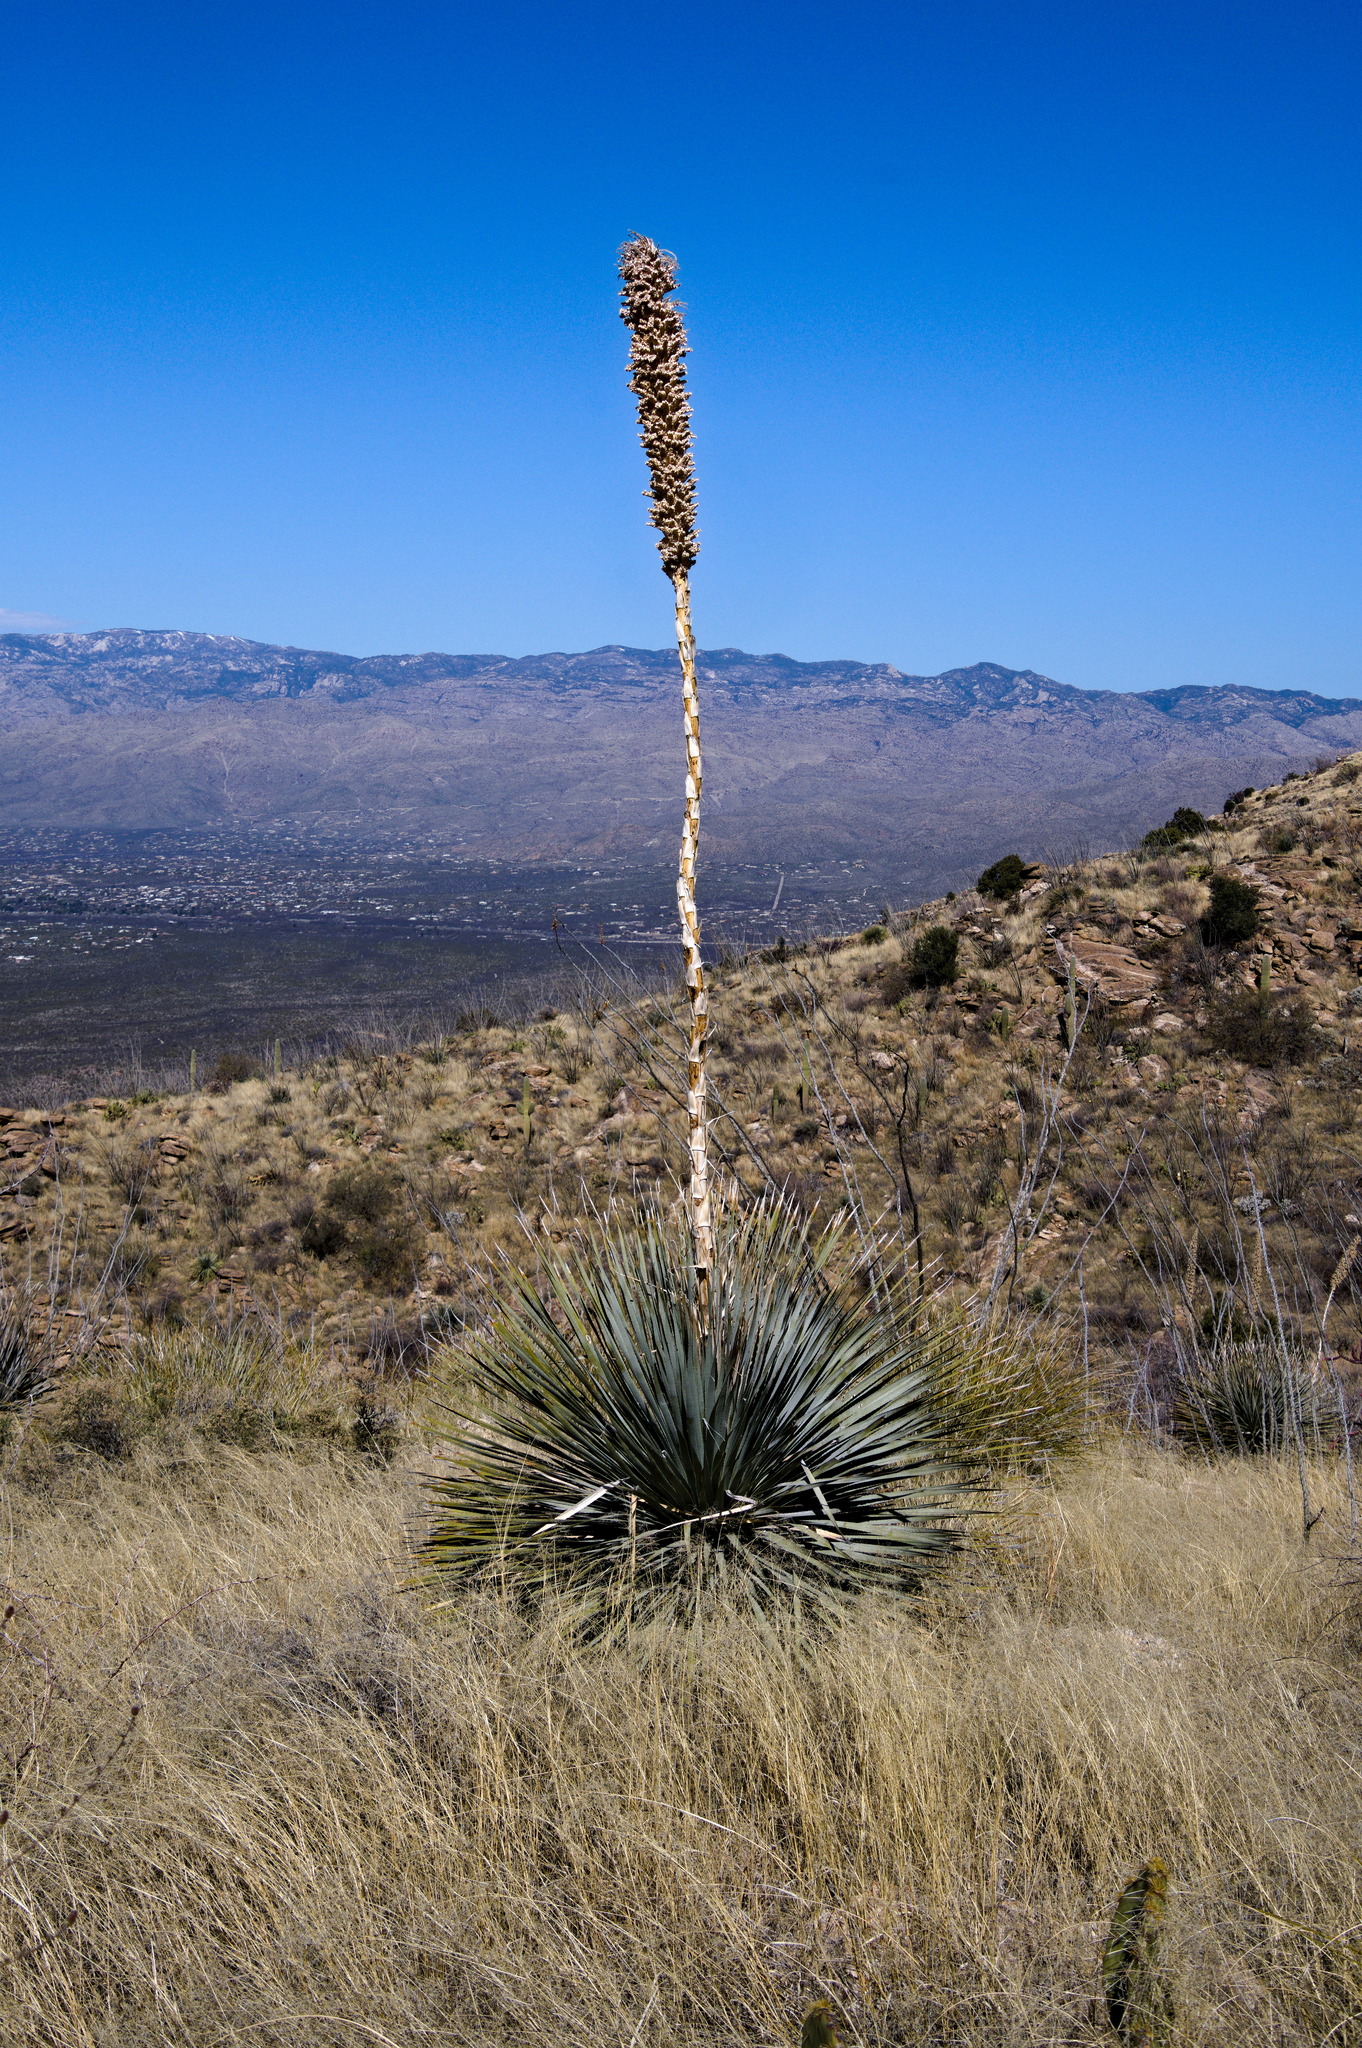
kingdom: Plantae
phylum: Tracheophyta
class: Liliopsida
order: Asparagales
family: Asparagaceae
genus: Dasylirion
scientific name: Dasylirion wheeleri
